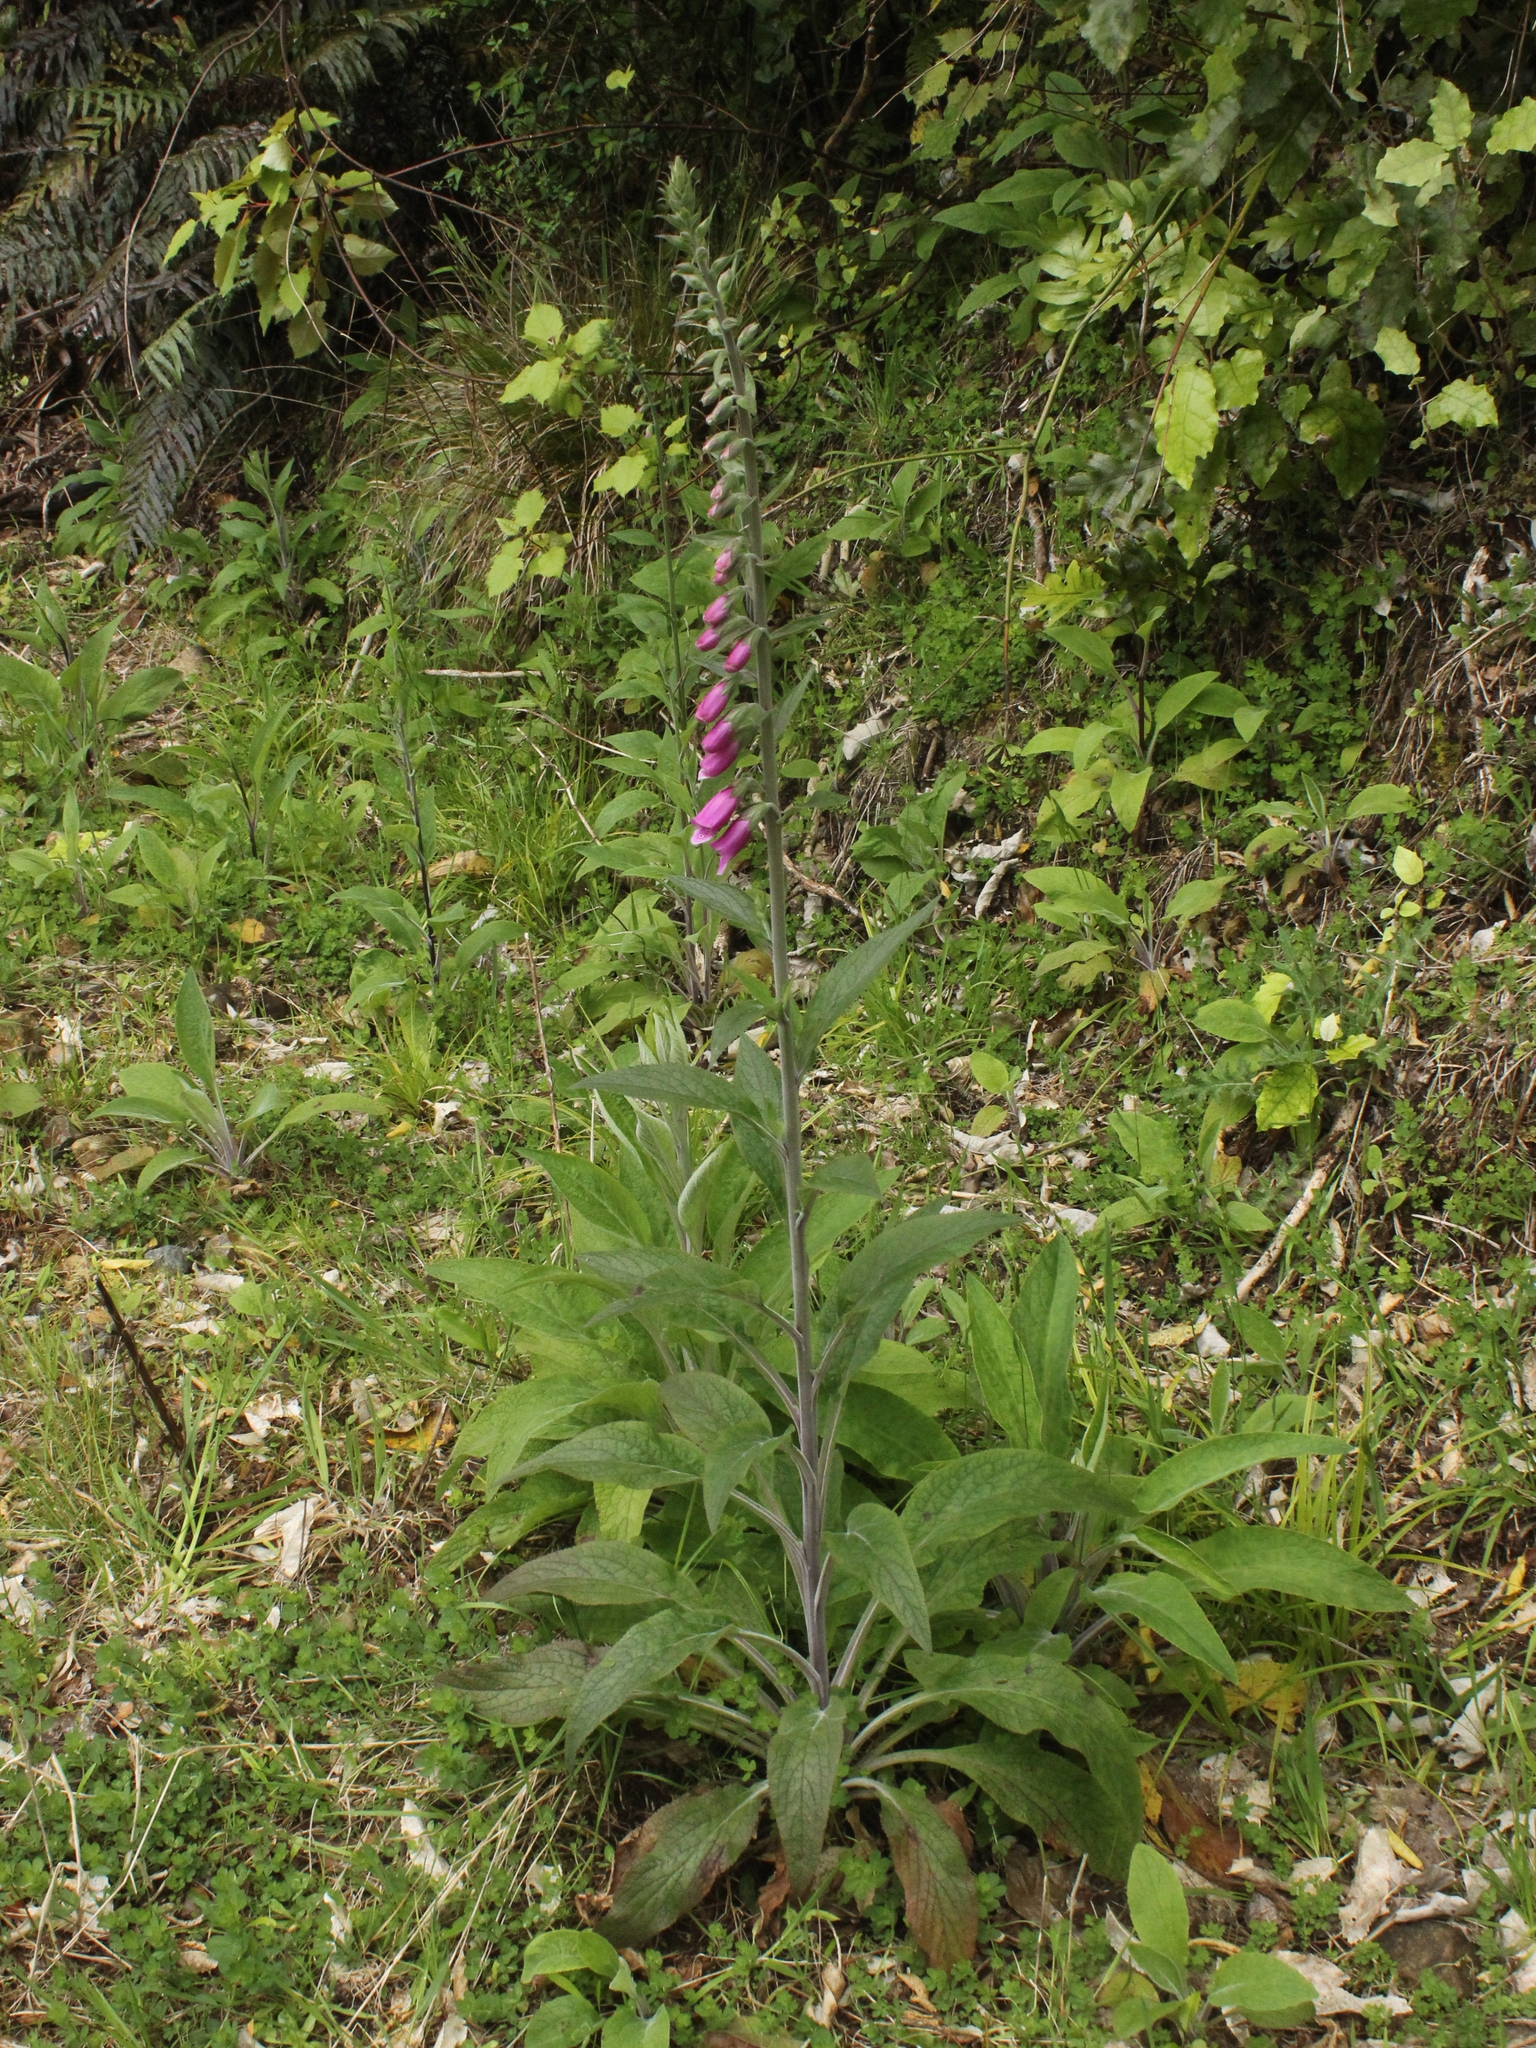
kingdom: Plantae
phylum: Tracheophyta
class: Magnoliopsida
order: Lamiales
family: Plantaginaceae
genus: Digitalis
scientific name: Digitalis purpurea
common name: Foxglove
